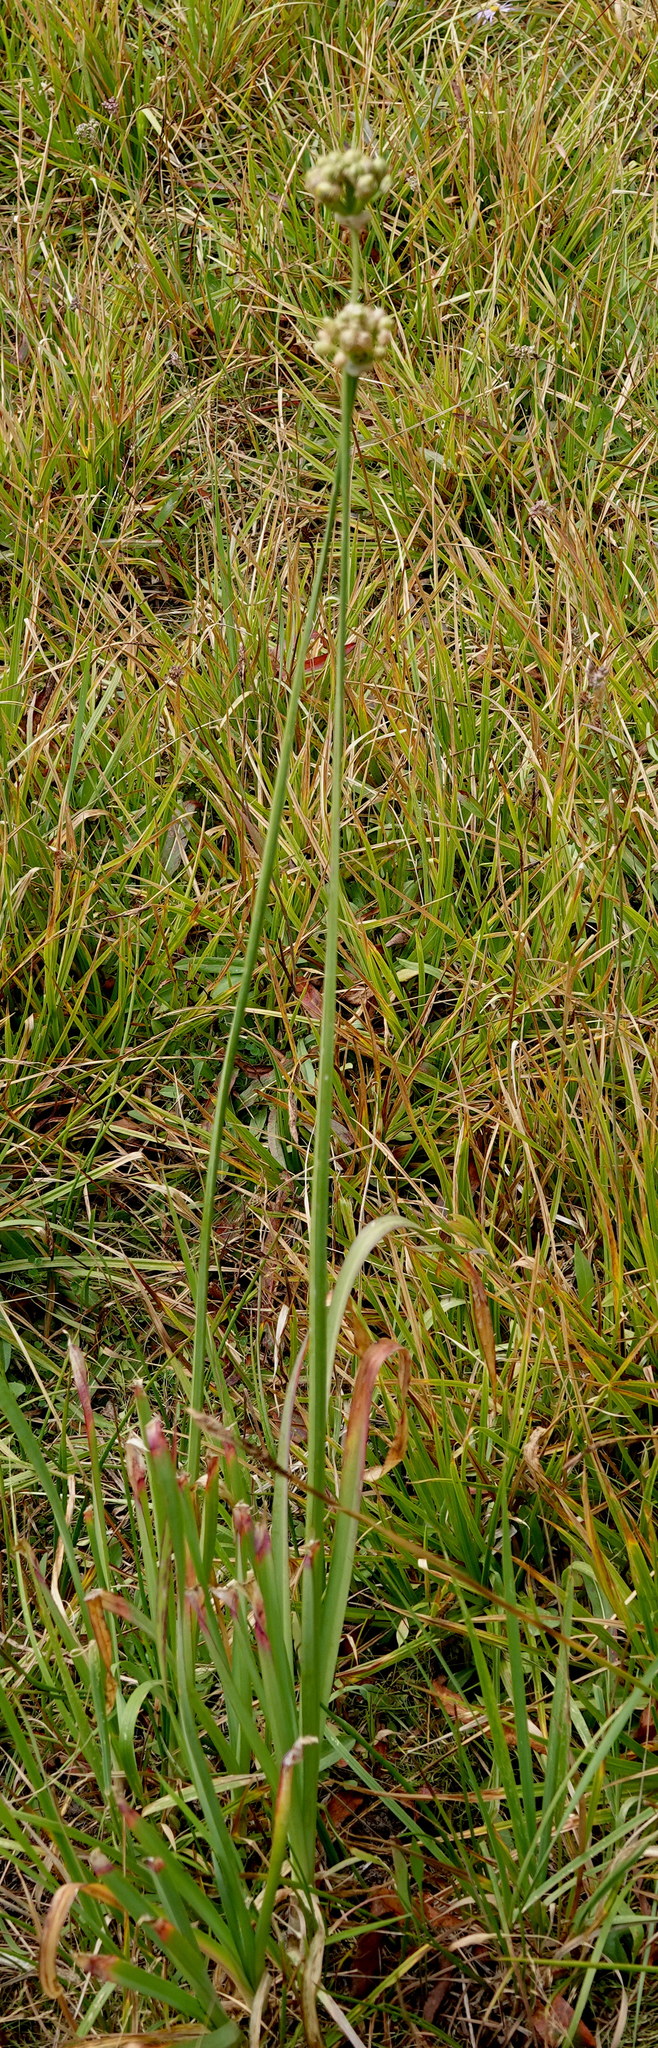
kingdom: Plantae
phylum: Tracheophyta
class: Liliopsida
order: Asparagales
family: Amaryllidaceae
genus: Allium
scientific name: Allium validum
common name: Pacific mountain onion
